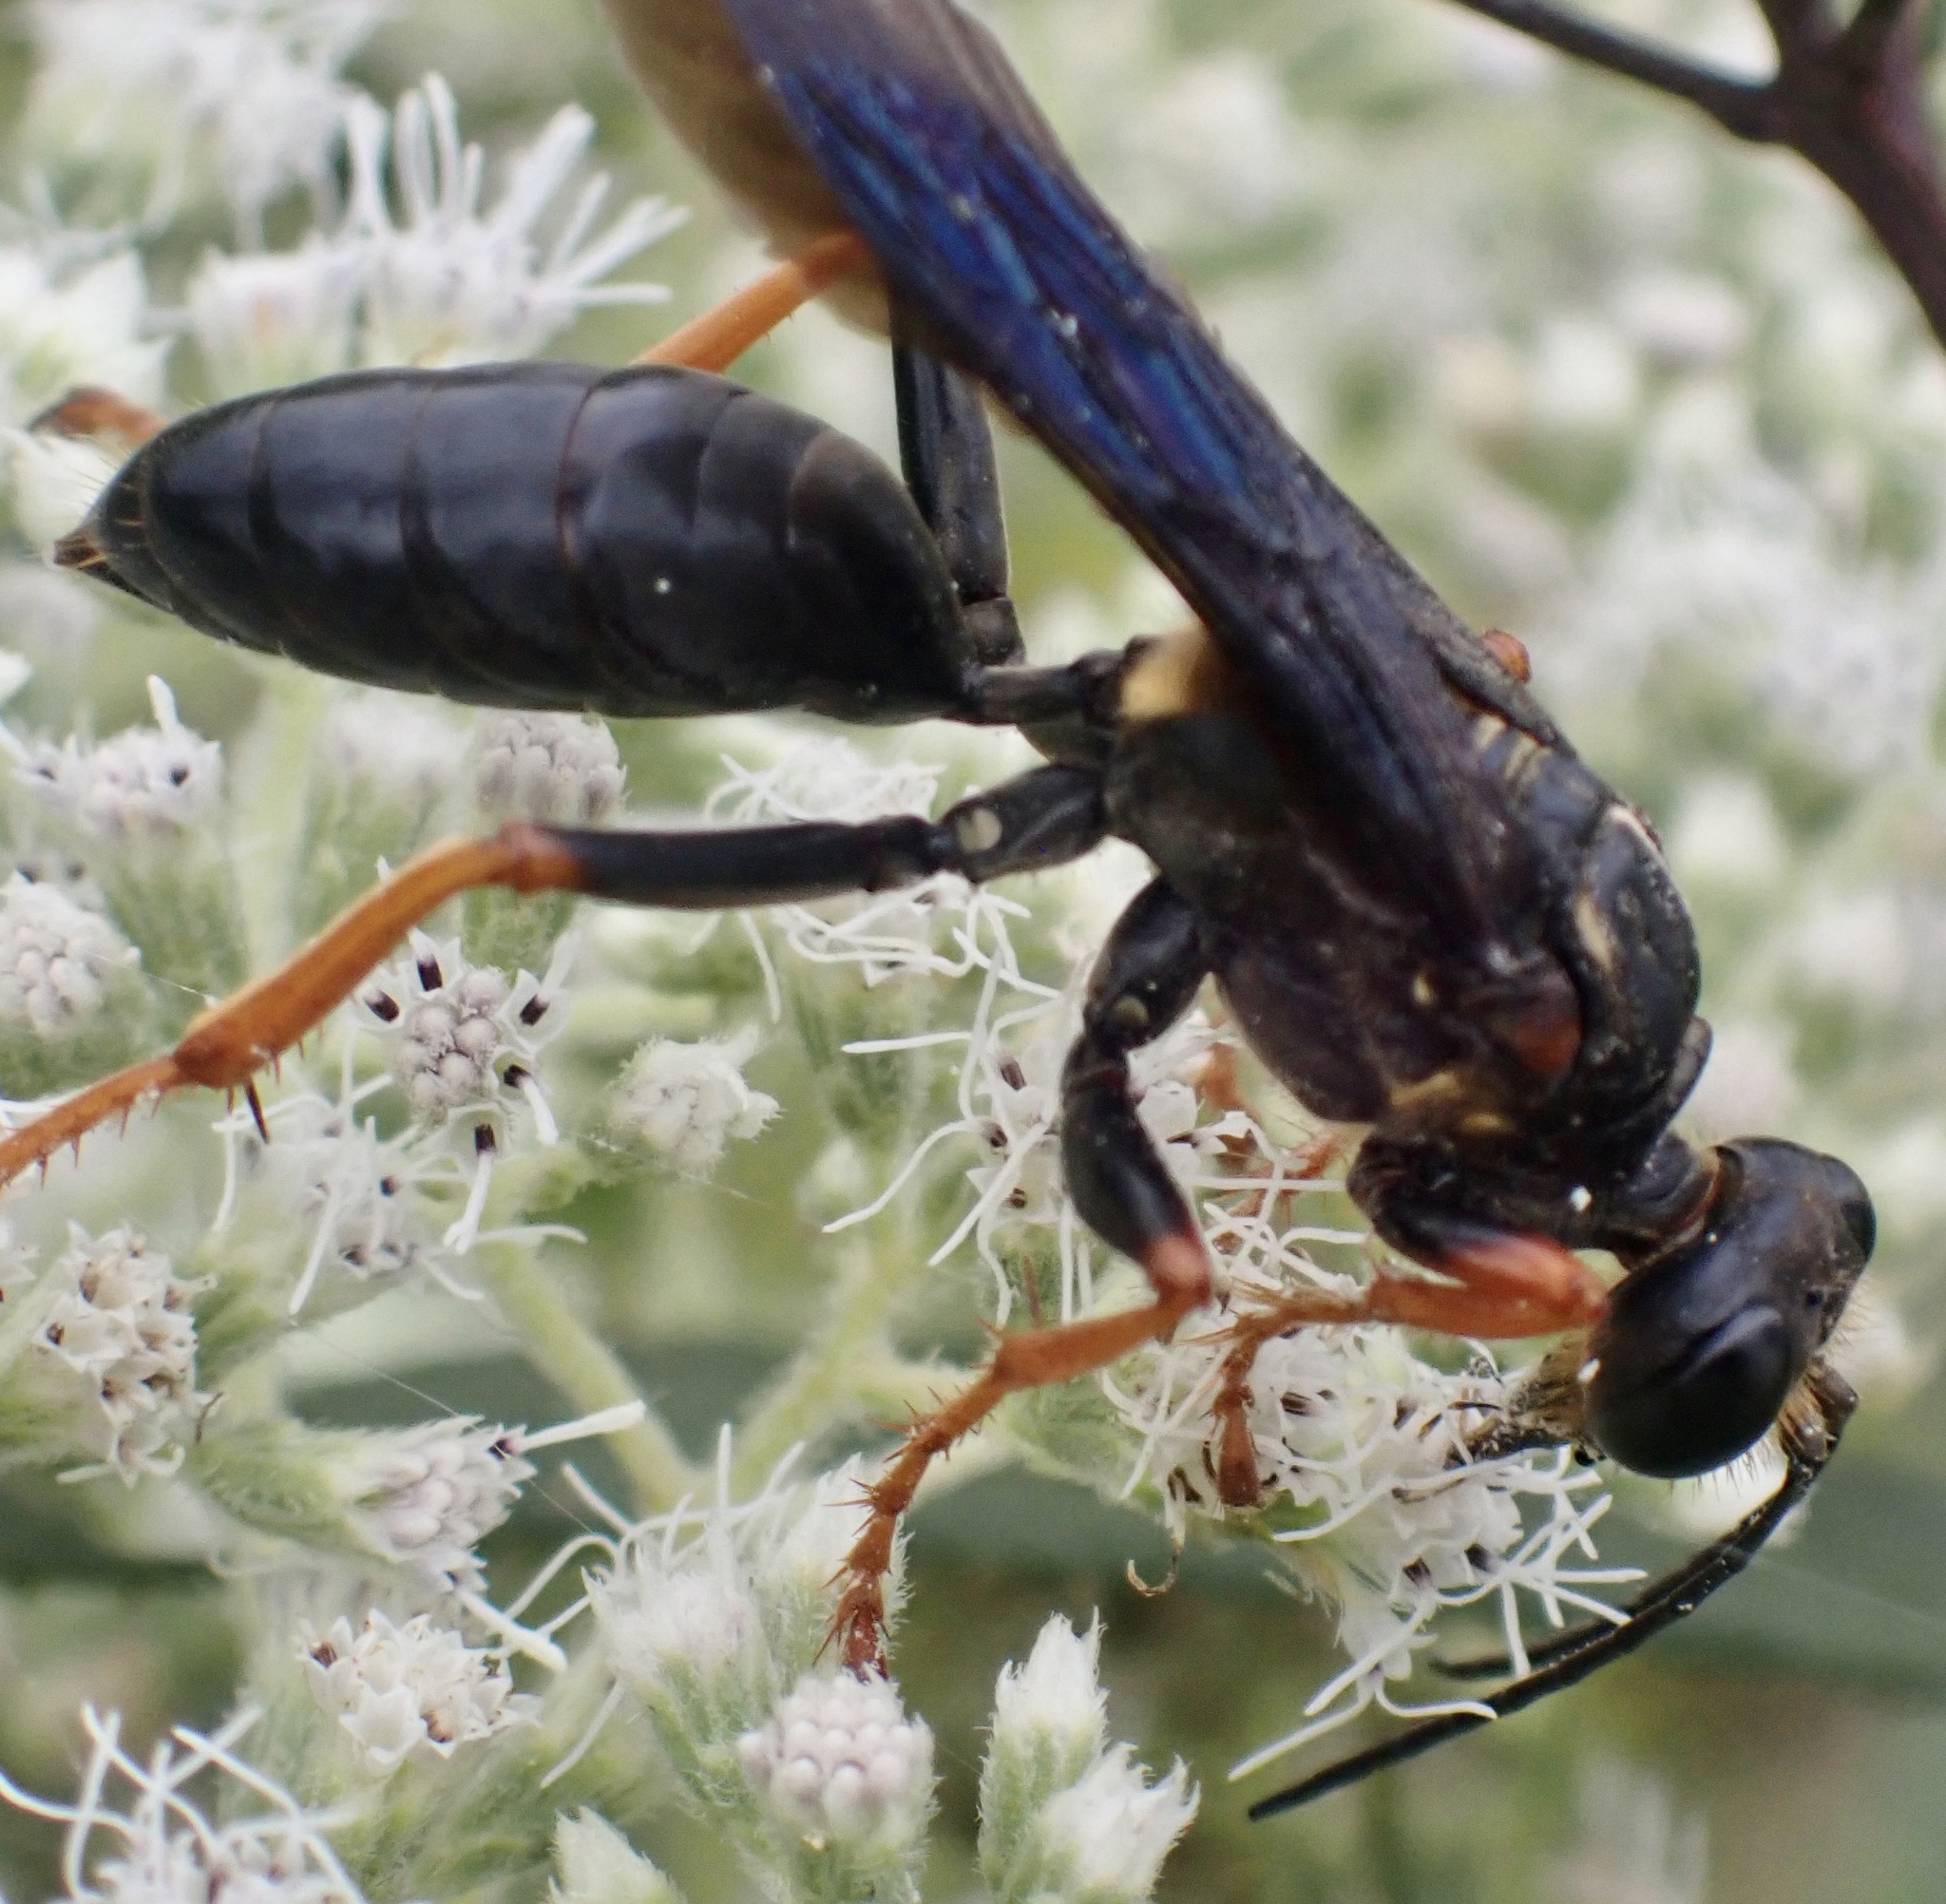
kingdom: Animalia
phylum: Arthropoda
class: Insecta
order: Hymenoptera
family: Sphecidae
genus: Sphex
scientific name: Sphex flavovestitus
